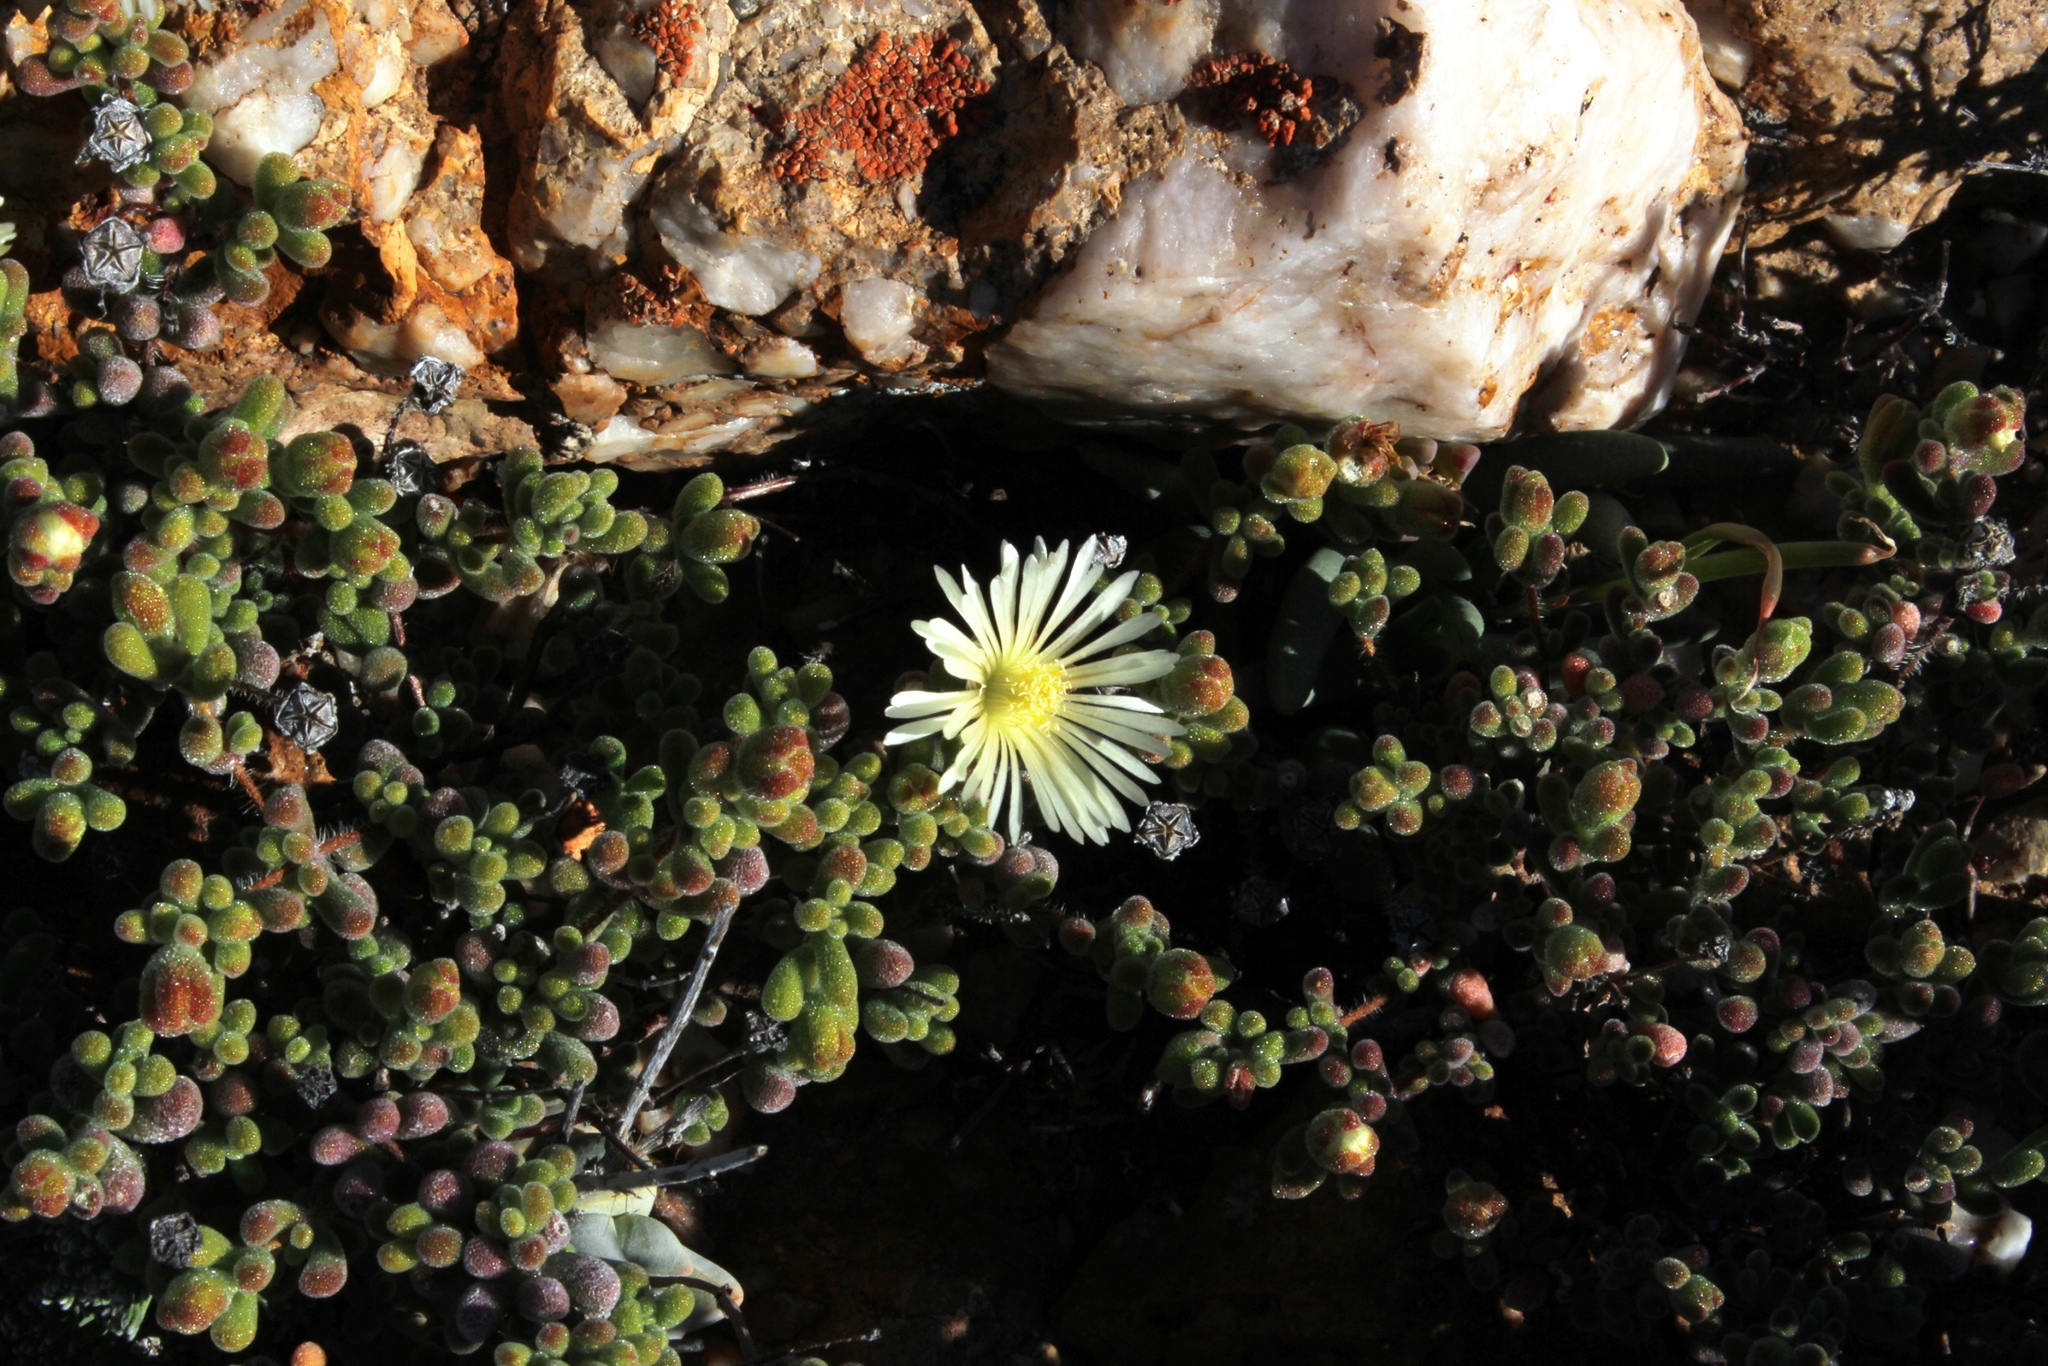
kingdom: Plantae
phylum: Tracheophyta
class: Magnoliopsida
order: Caryophyllales
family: Aizoaceae
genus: Drosanthemum
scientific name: Drosanthemum schoenlandianum
